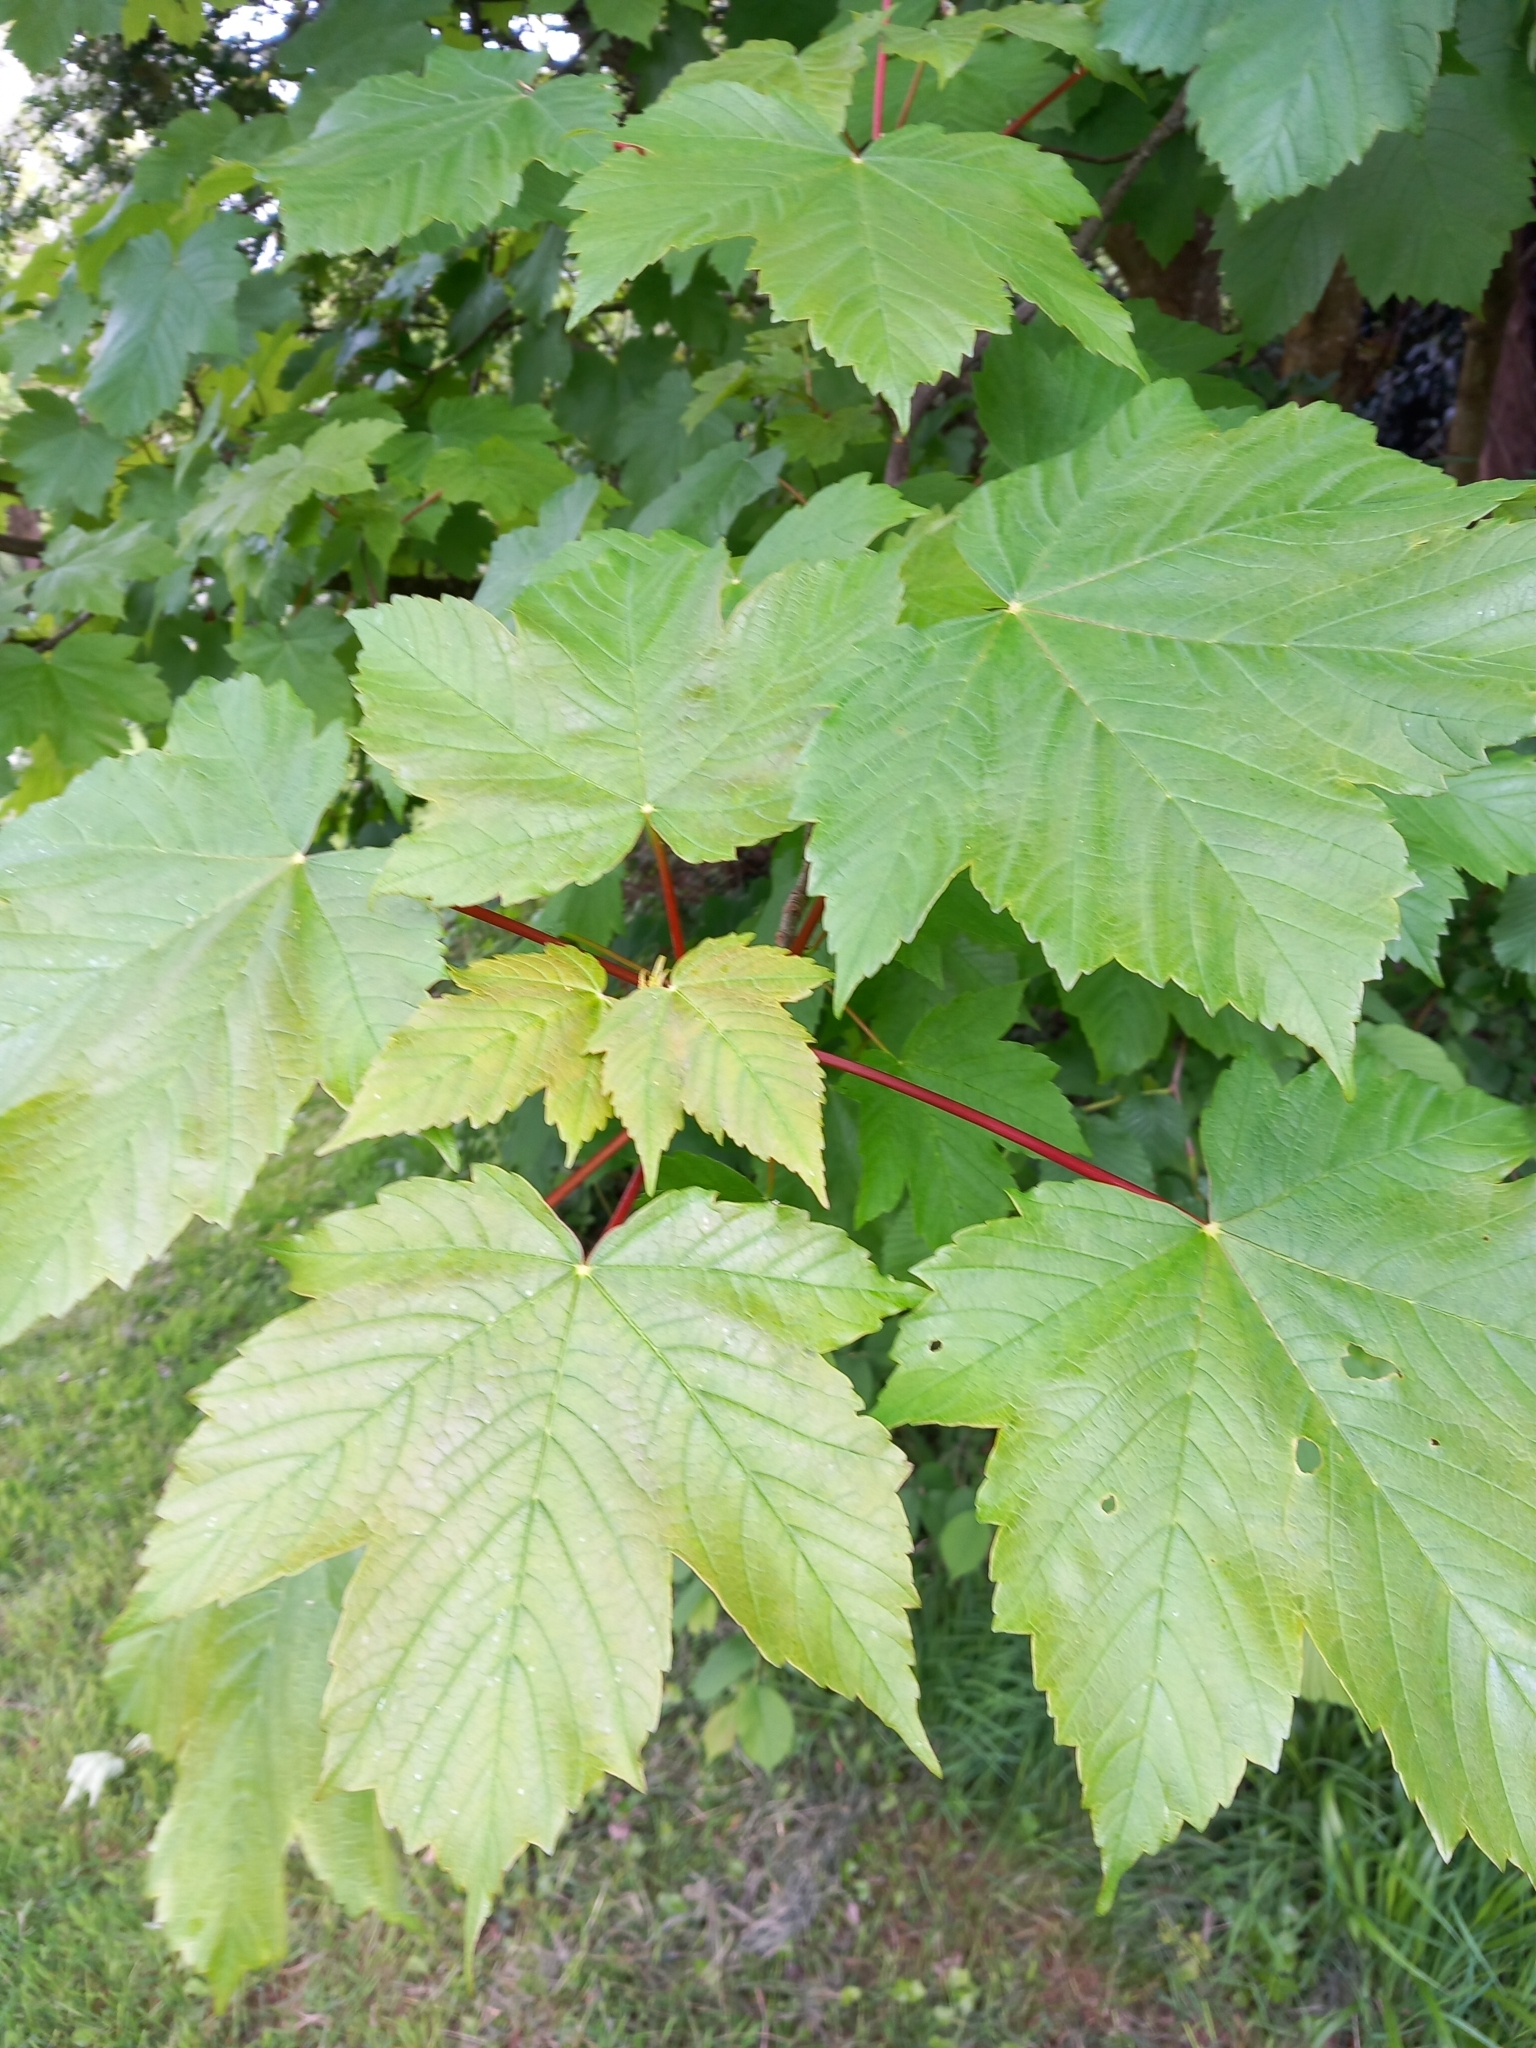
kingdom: Plantae
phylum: Tracheophyta
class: Magnoliopsida
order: Sapindales
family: Sapindaceae
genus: Acer
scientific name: Acer pseudoplatanus
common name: Sycamore
